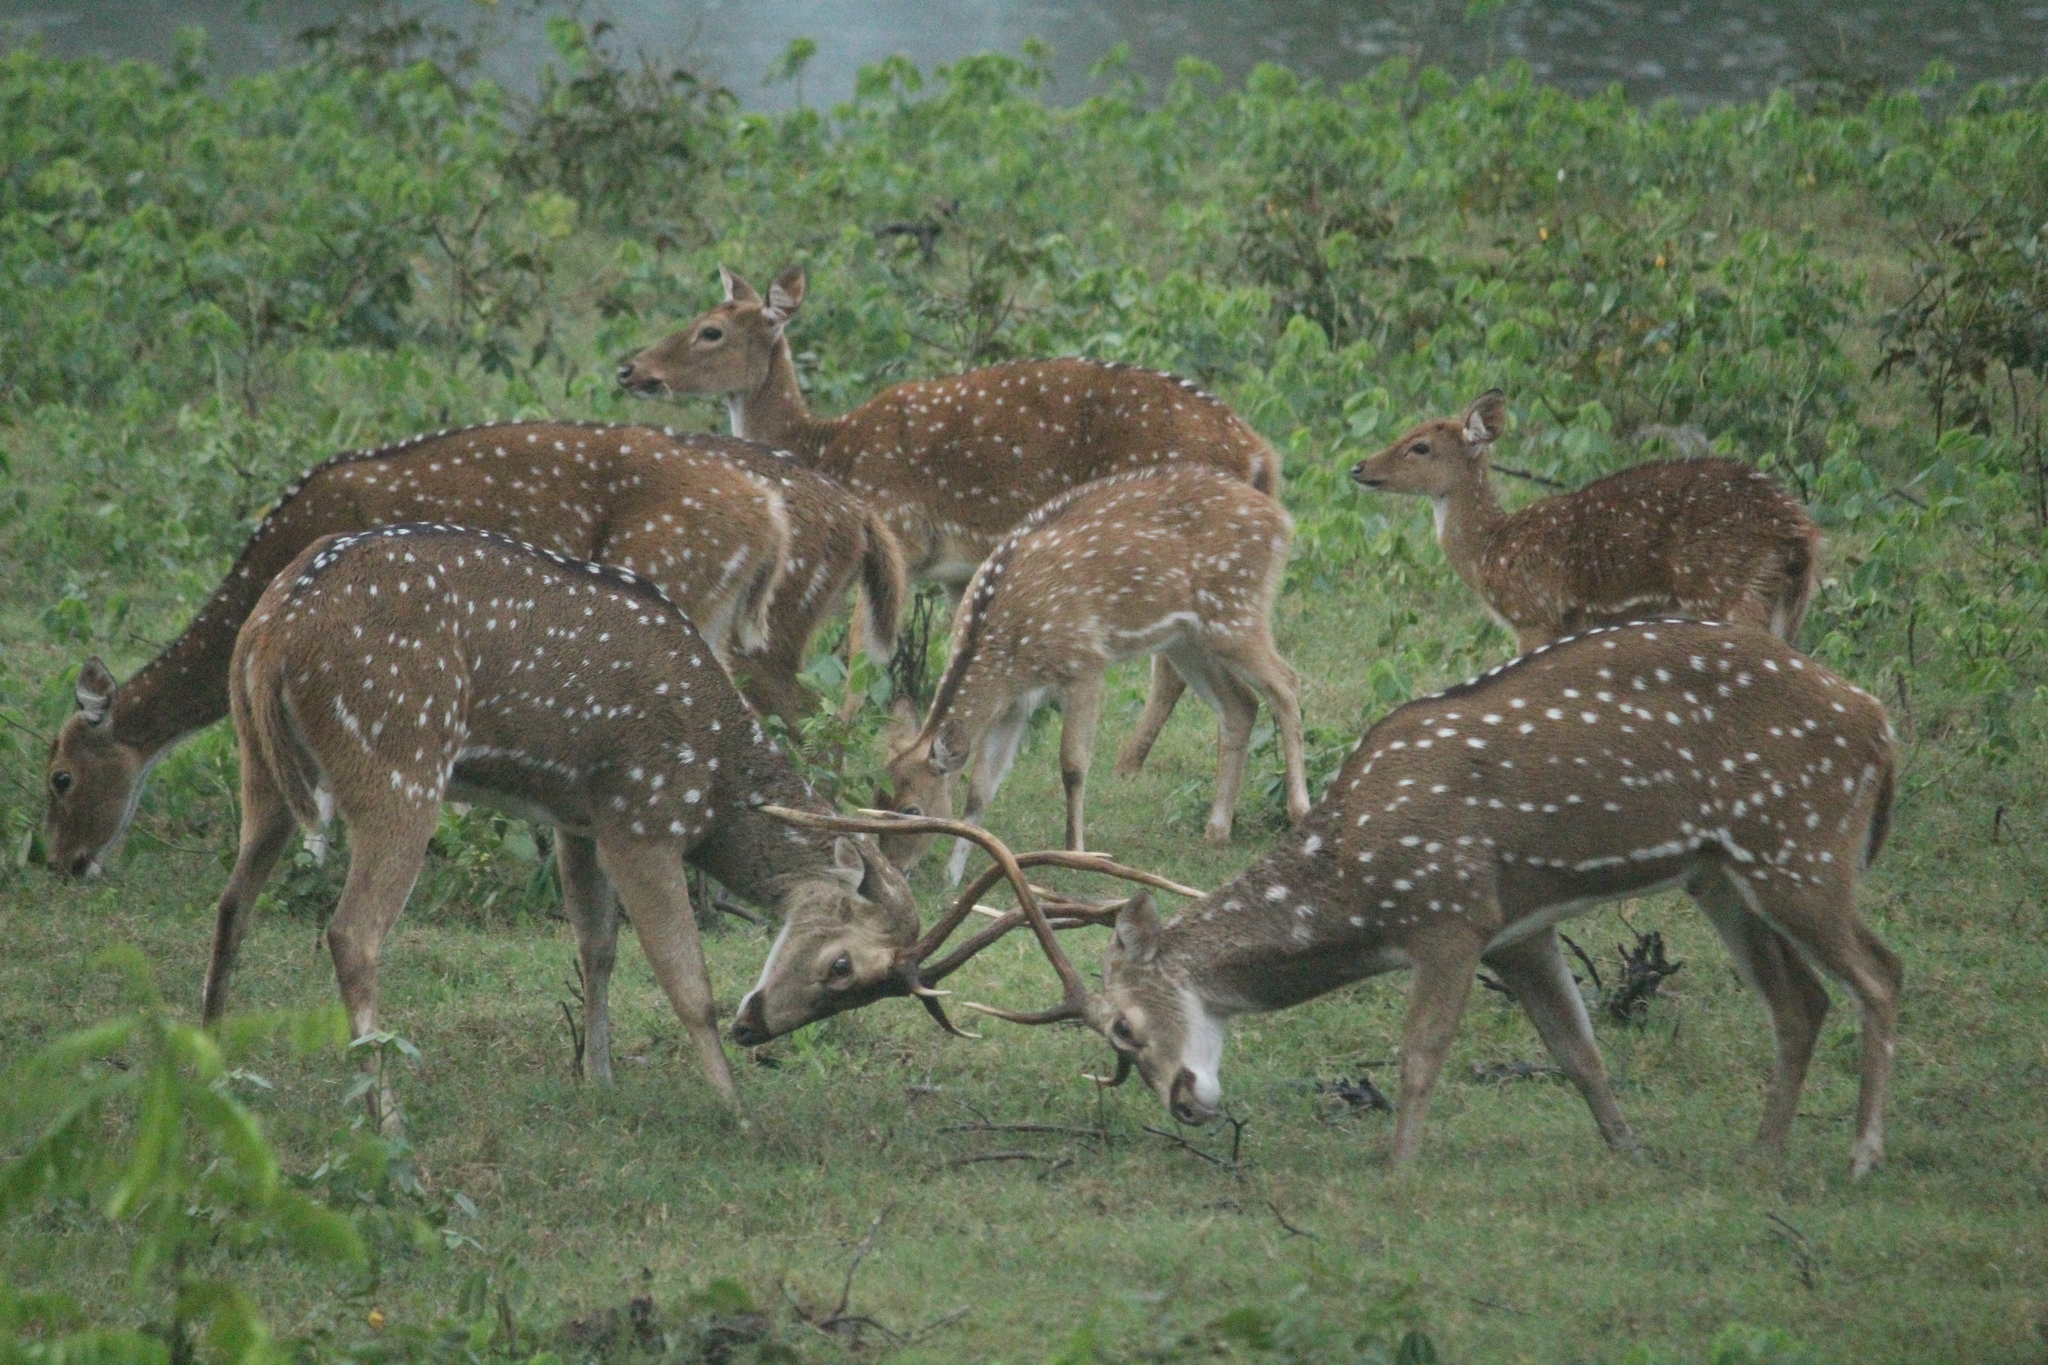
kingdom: Animalia
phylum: Chordata
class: Mammalia
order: Artiodactyla
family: Cervidae
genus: Axis
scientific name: Axis axis
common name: Chital
